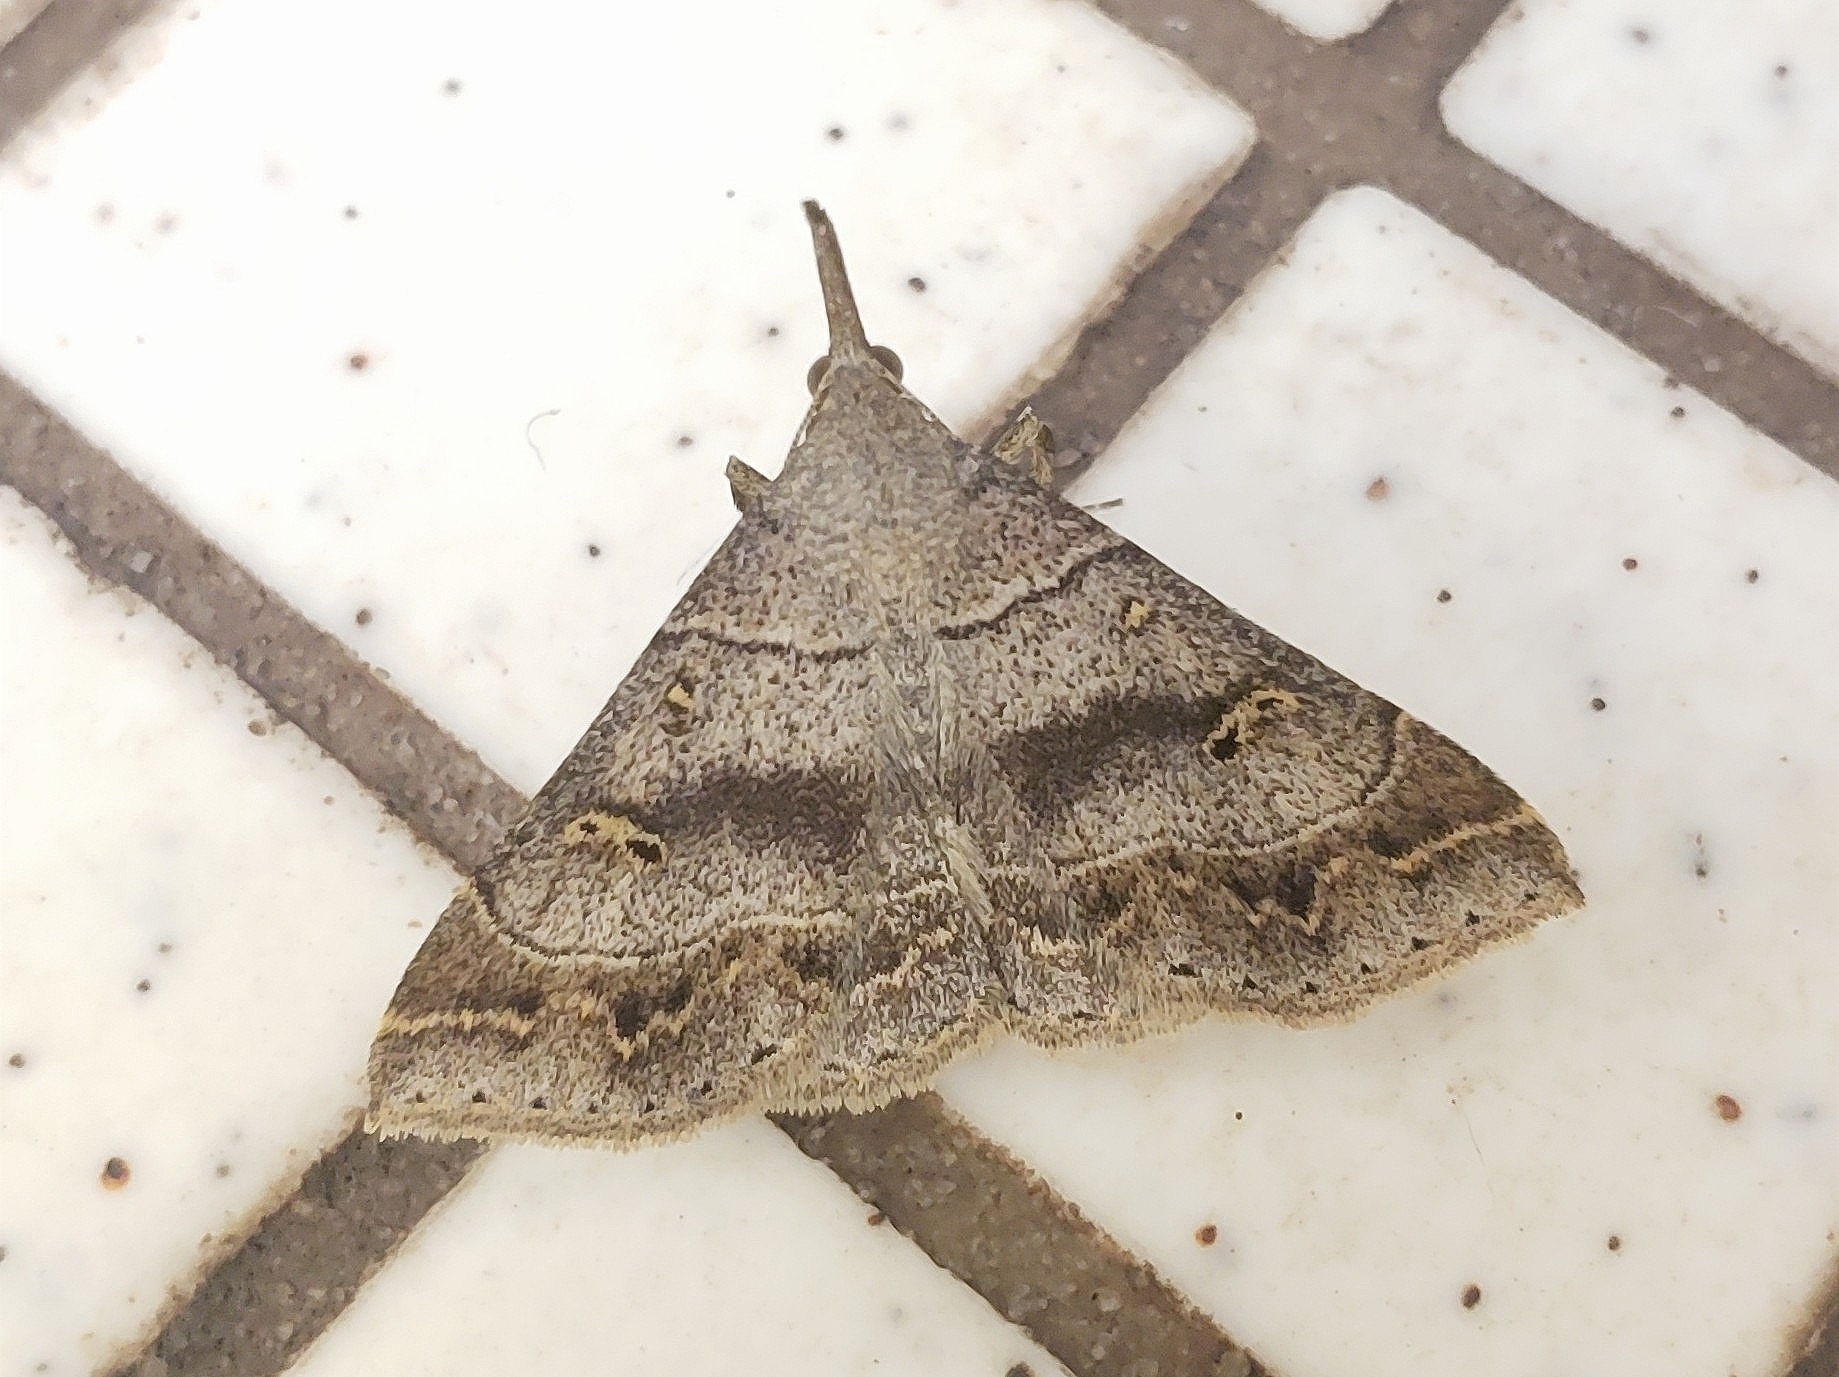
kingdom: Animalia
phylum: Arthropoda
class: Insecta
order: Lepidoptera
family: Erebidae
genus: Renia
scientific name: Renia flavipunctalis
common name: Yellow-spotted renia moth
